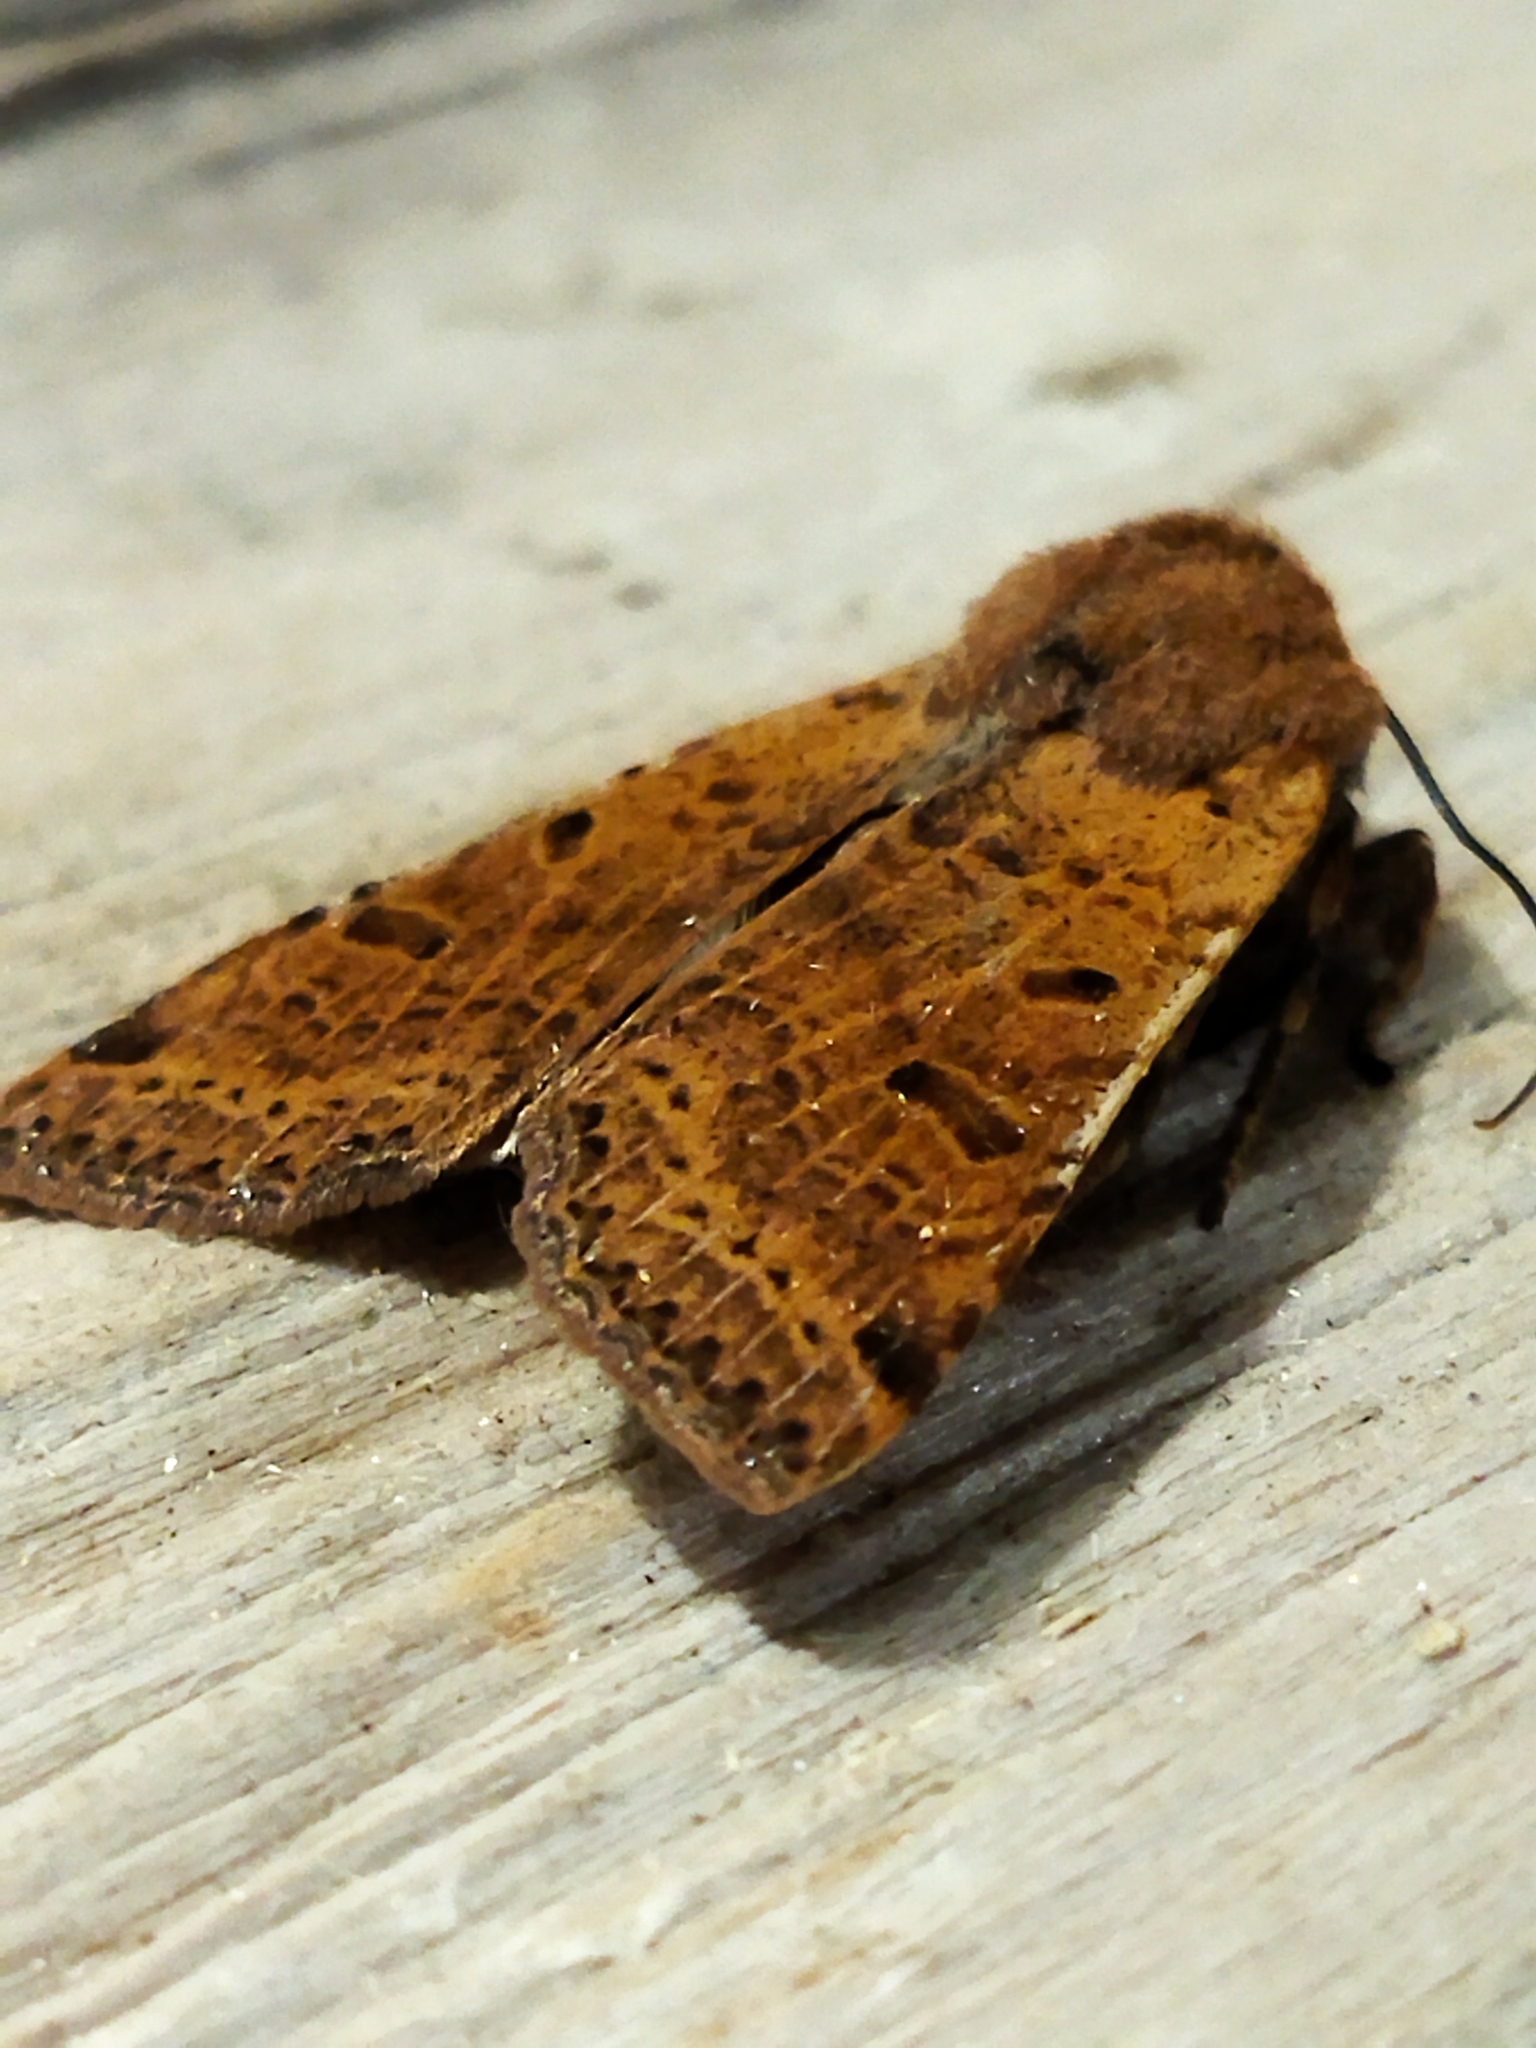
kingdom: Animalia
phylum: Arthropoda
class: Insecta
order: Lepidoptera
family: Noctuidae
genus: Agrochola
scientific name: Agrochola lychnidis
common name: Beaded chestnut
